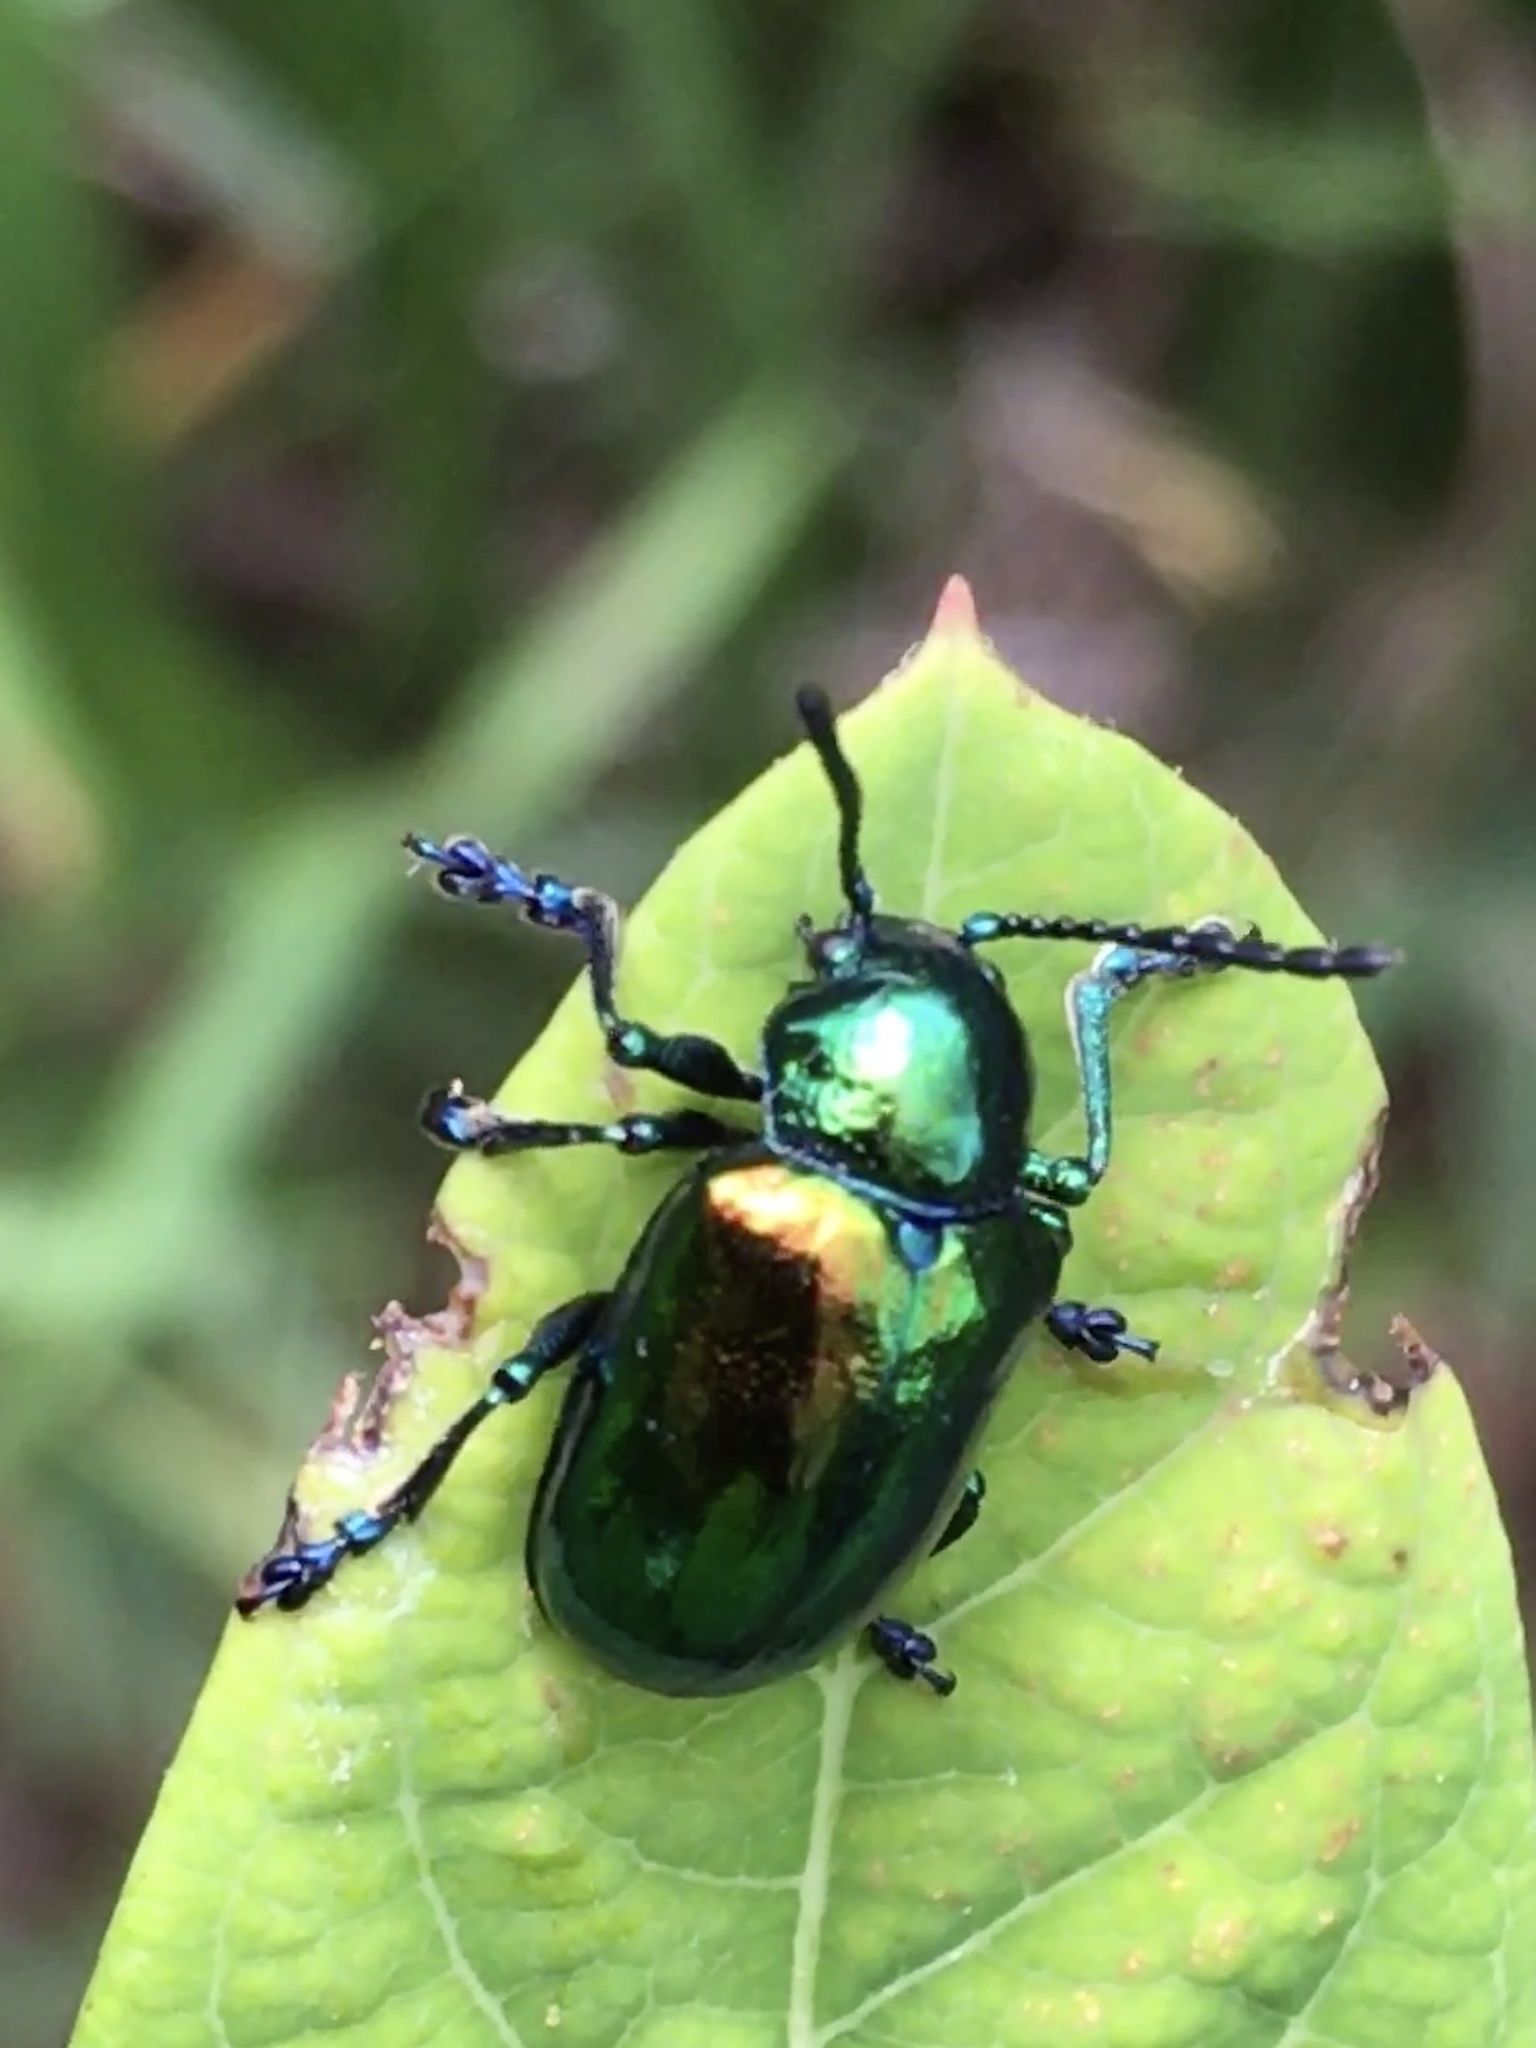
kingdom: Animalia
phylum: Arthropoda
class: Insecta
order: Coleoptera
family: Chrysomelidae
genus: Chrysochus
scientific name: Chrysochus auratus
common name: Dogbane leaf beetle
